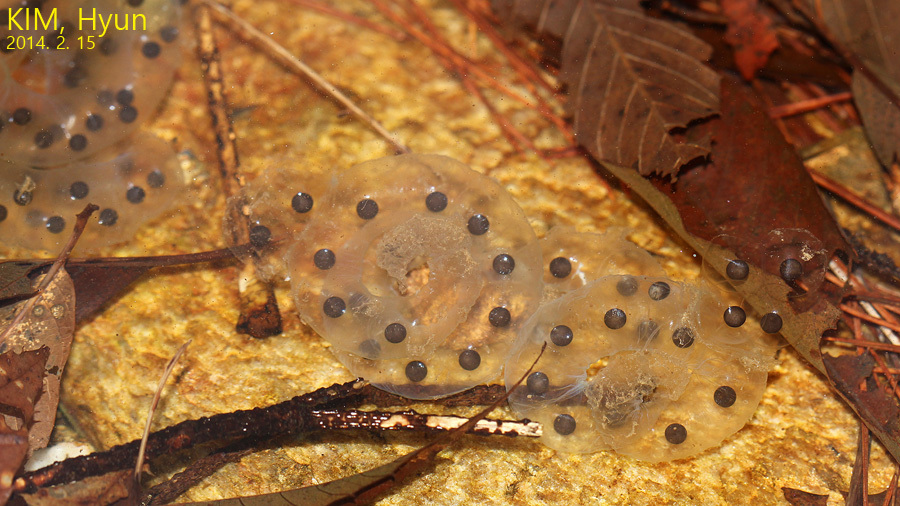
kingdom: Animalia
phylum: Chordata
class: Amphibia
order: Caudata
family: Hynobiidae
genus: Hynobius
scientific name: Hynobius quelpaertensis
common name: Cheju salamander
